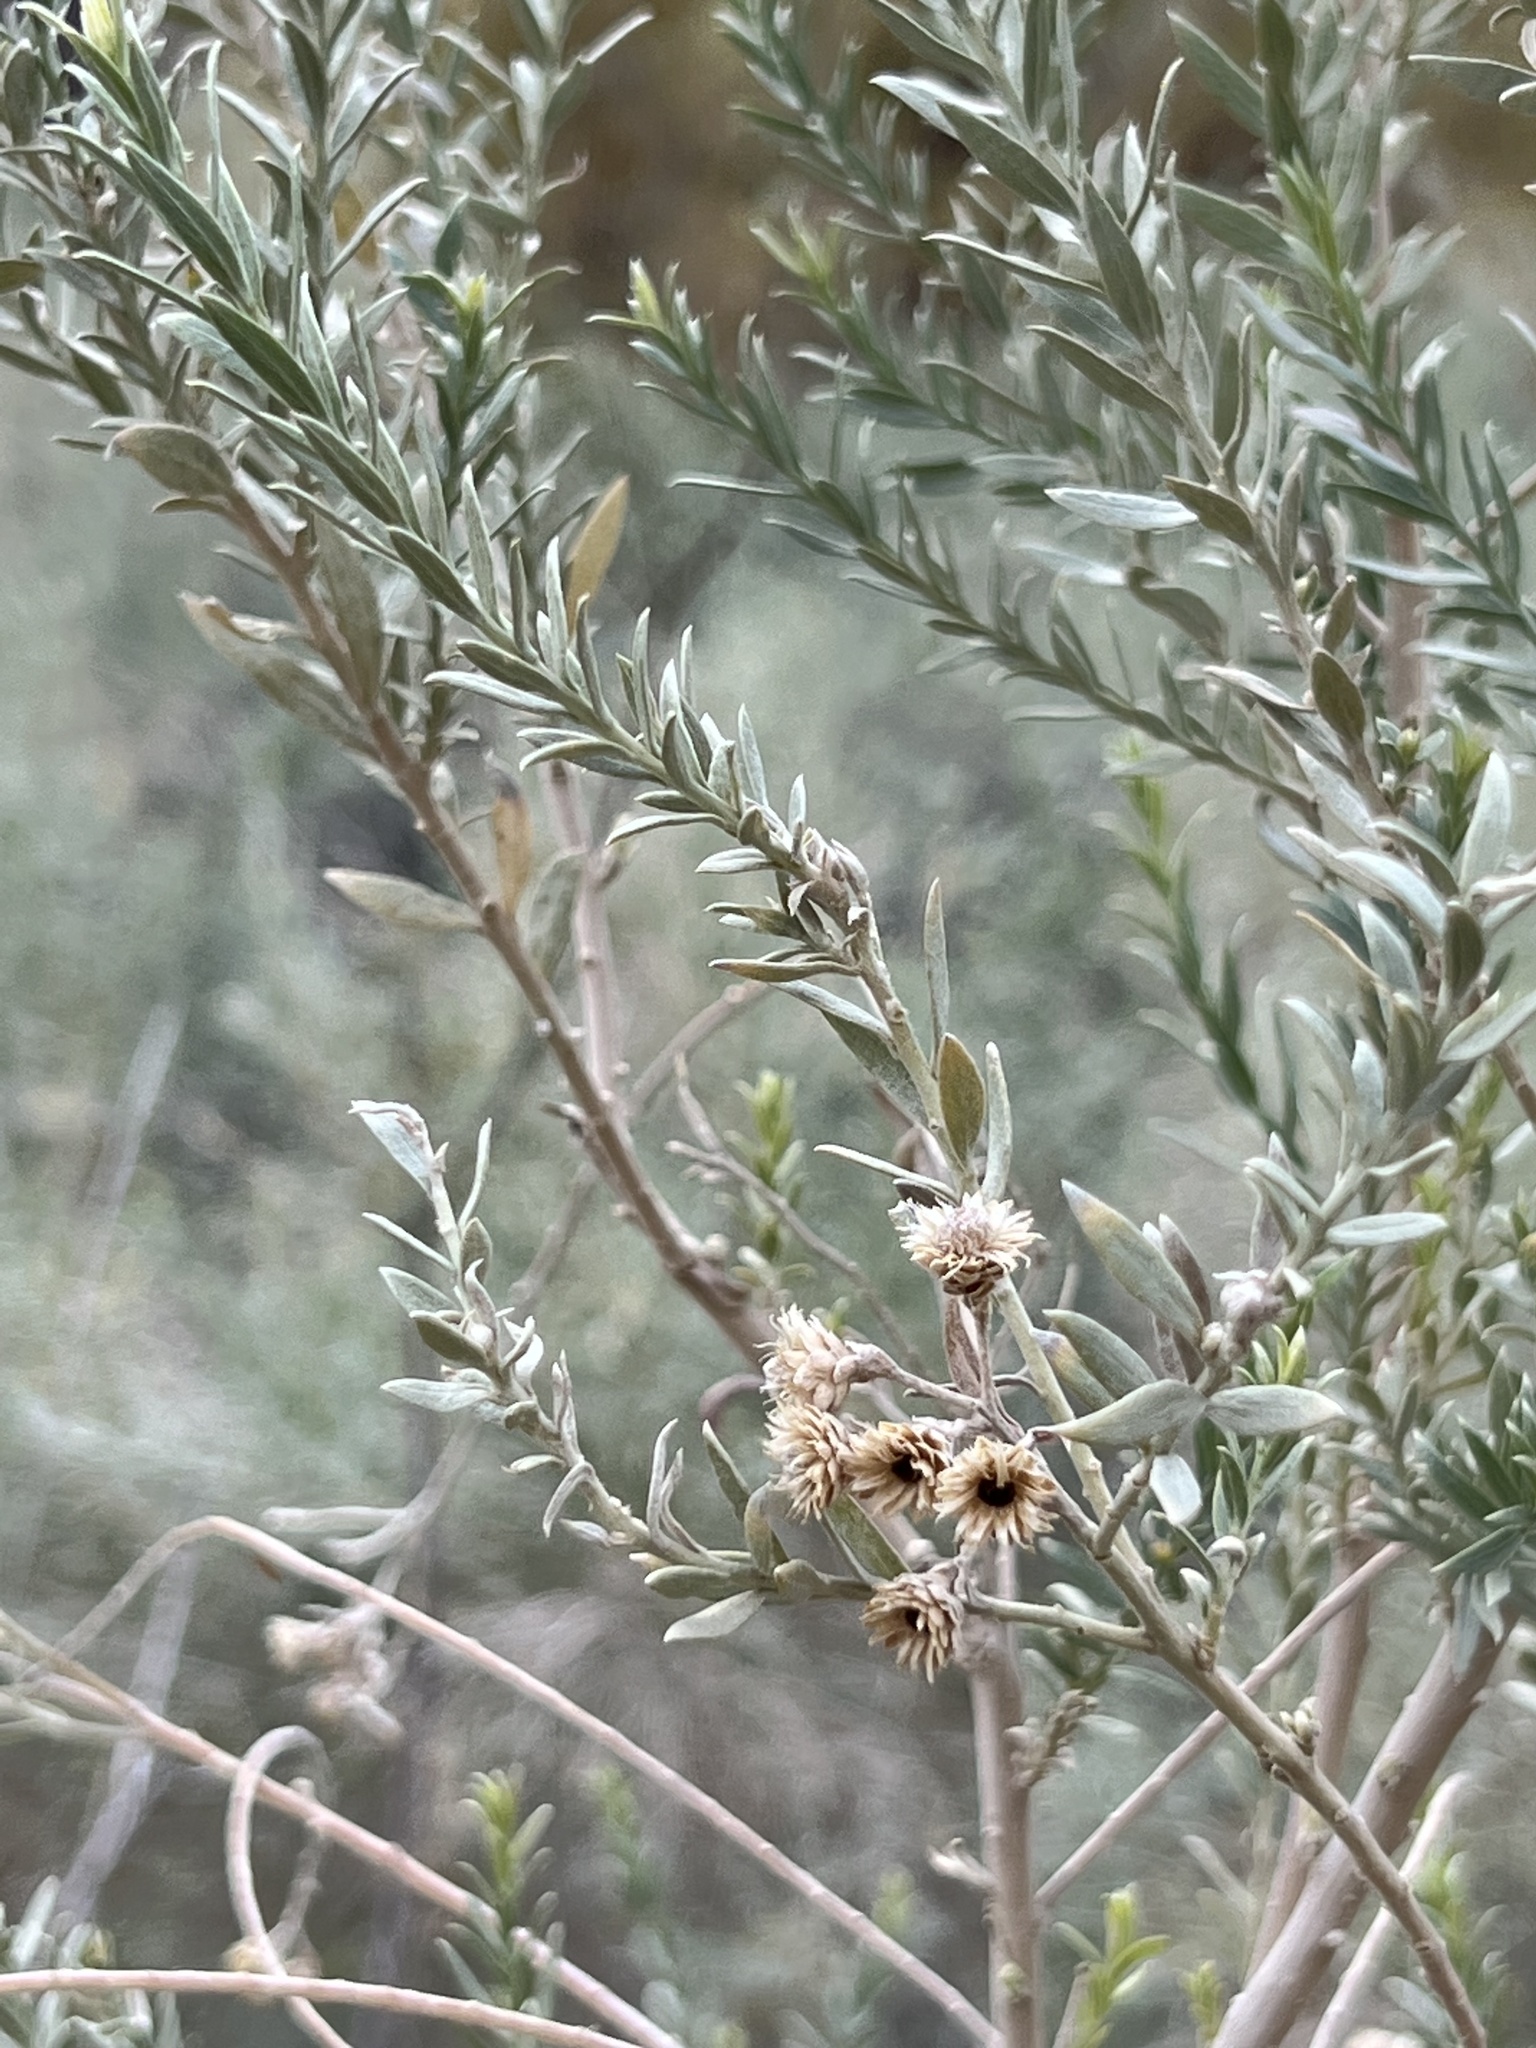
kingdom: Plantae
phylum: Tracheophyta
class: Magnoliopsida
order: Asterales
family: Asteraceae
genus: Pluchea
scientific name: Pluchea sericea
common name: Arrow-weed
